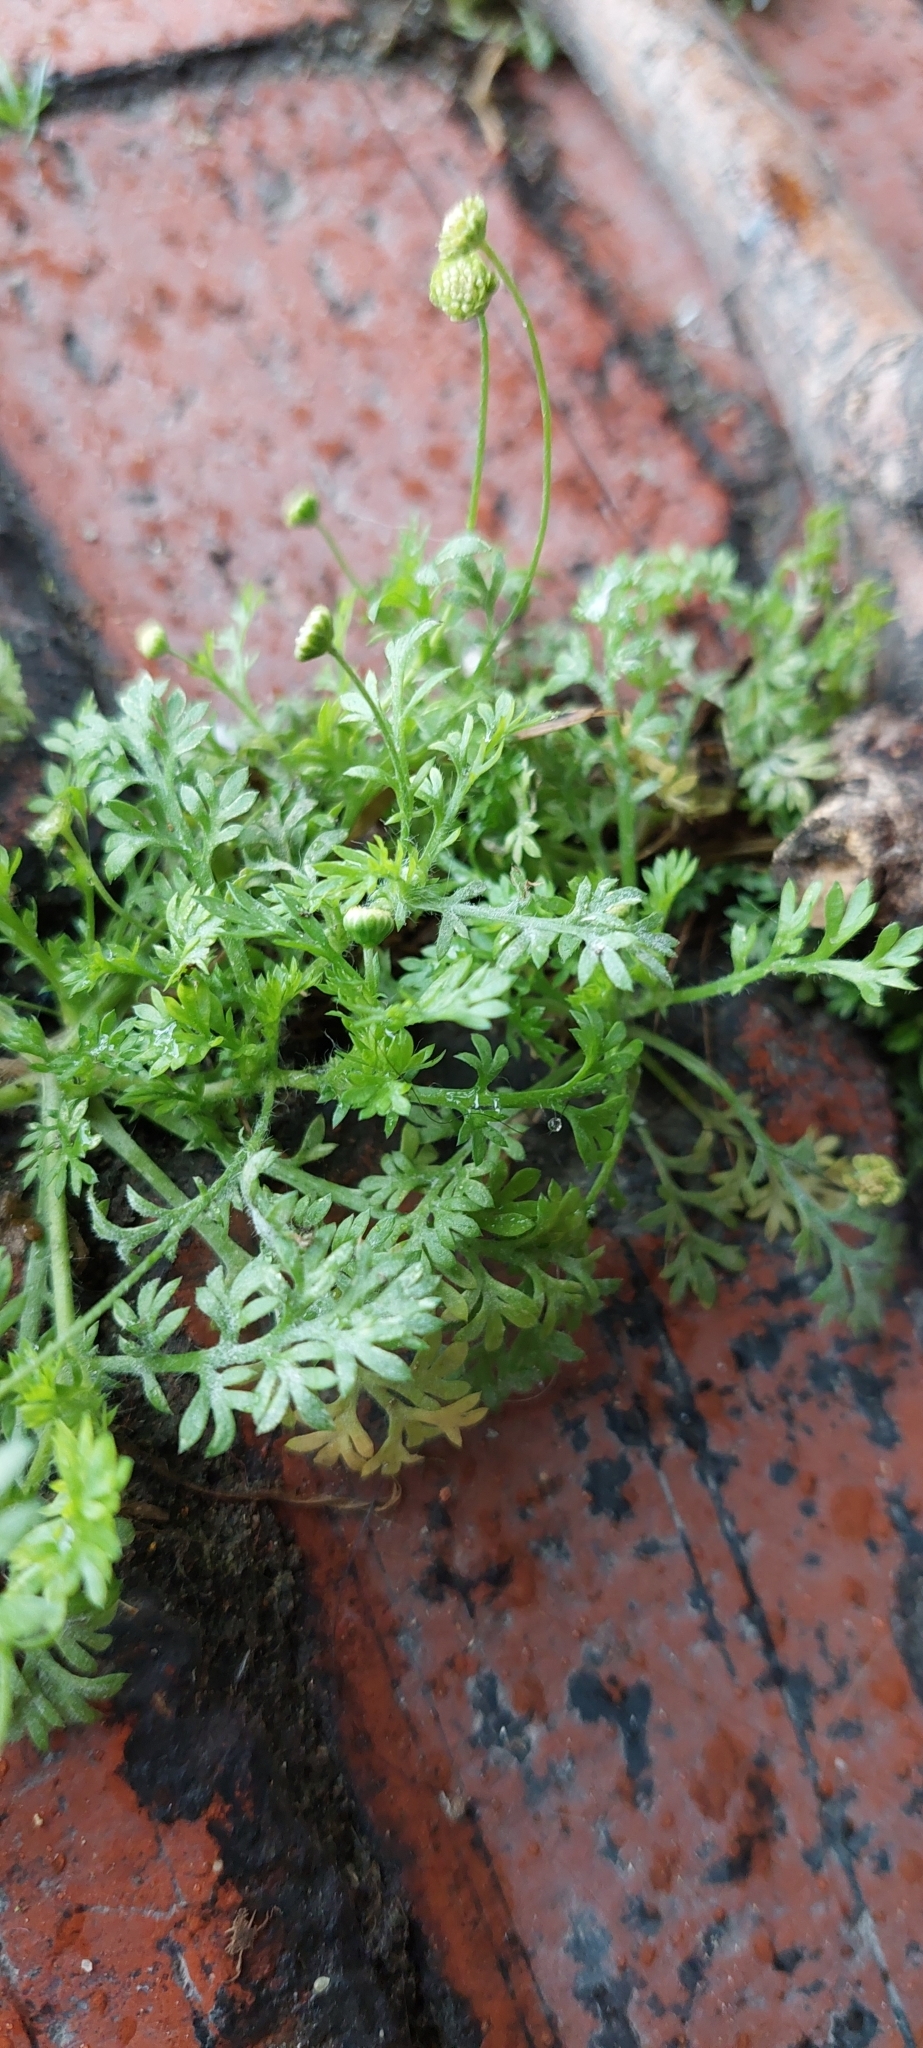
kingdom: Plantae
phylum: Tracheophyta
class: Magnoliopsida
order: Asterales
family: Asteraceae
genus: Cotula
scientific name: Cotula australis
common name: Australian waterbuttons
